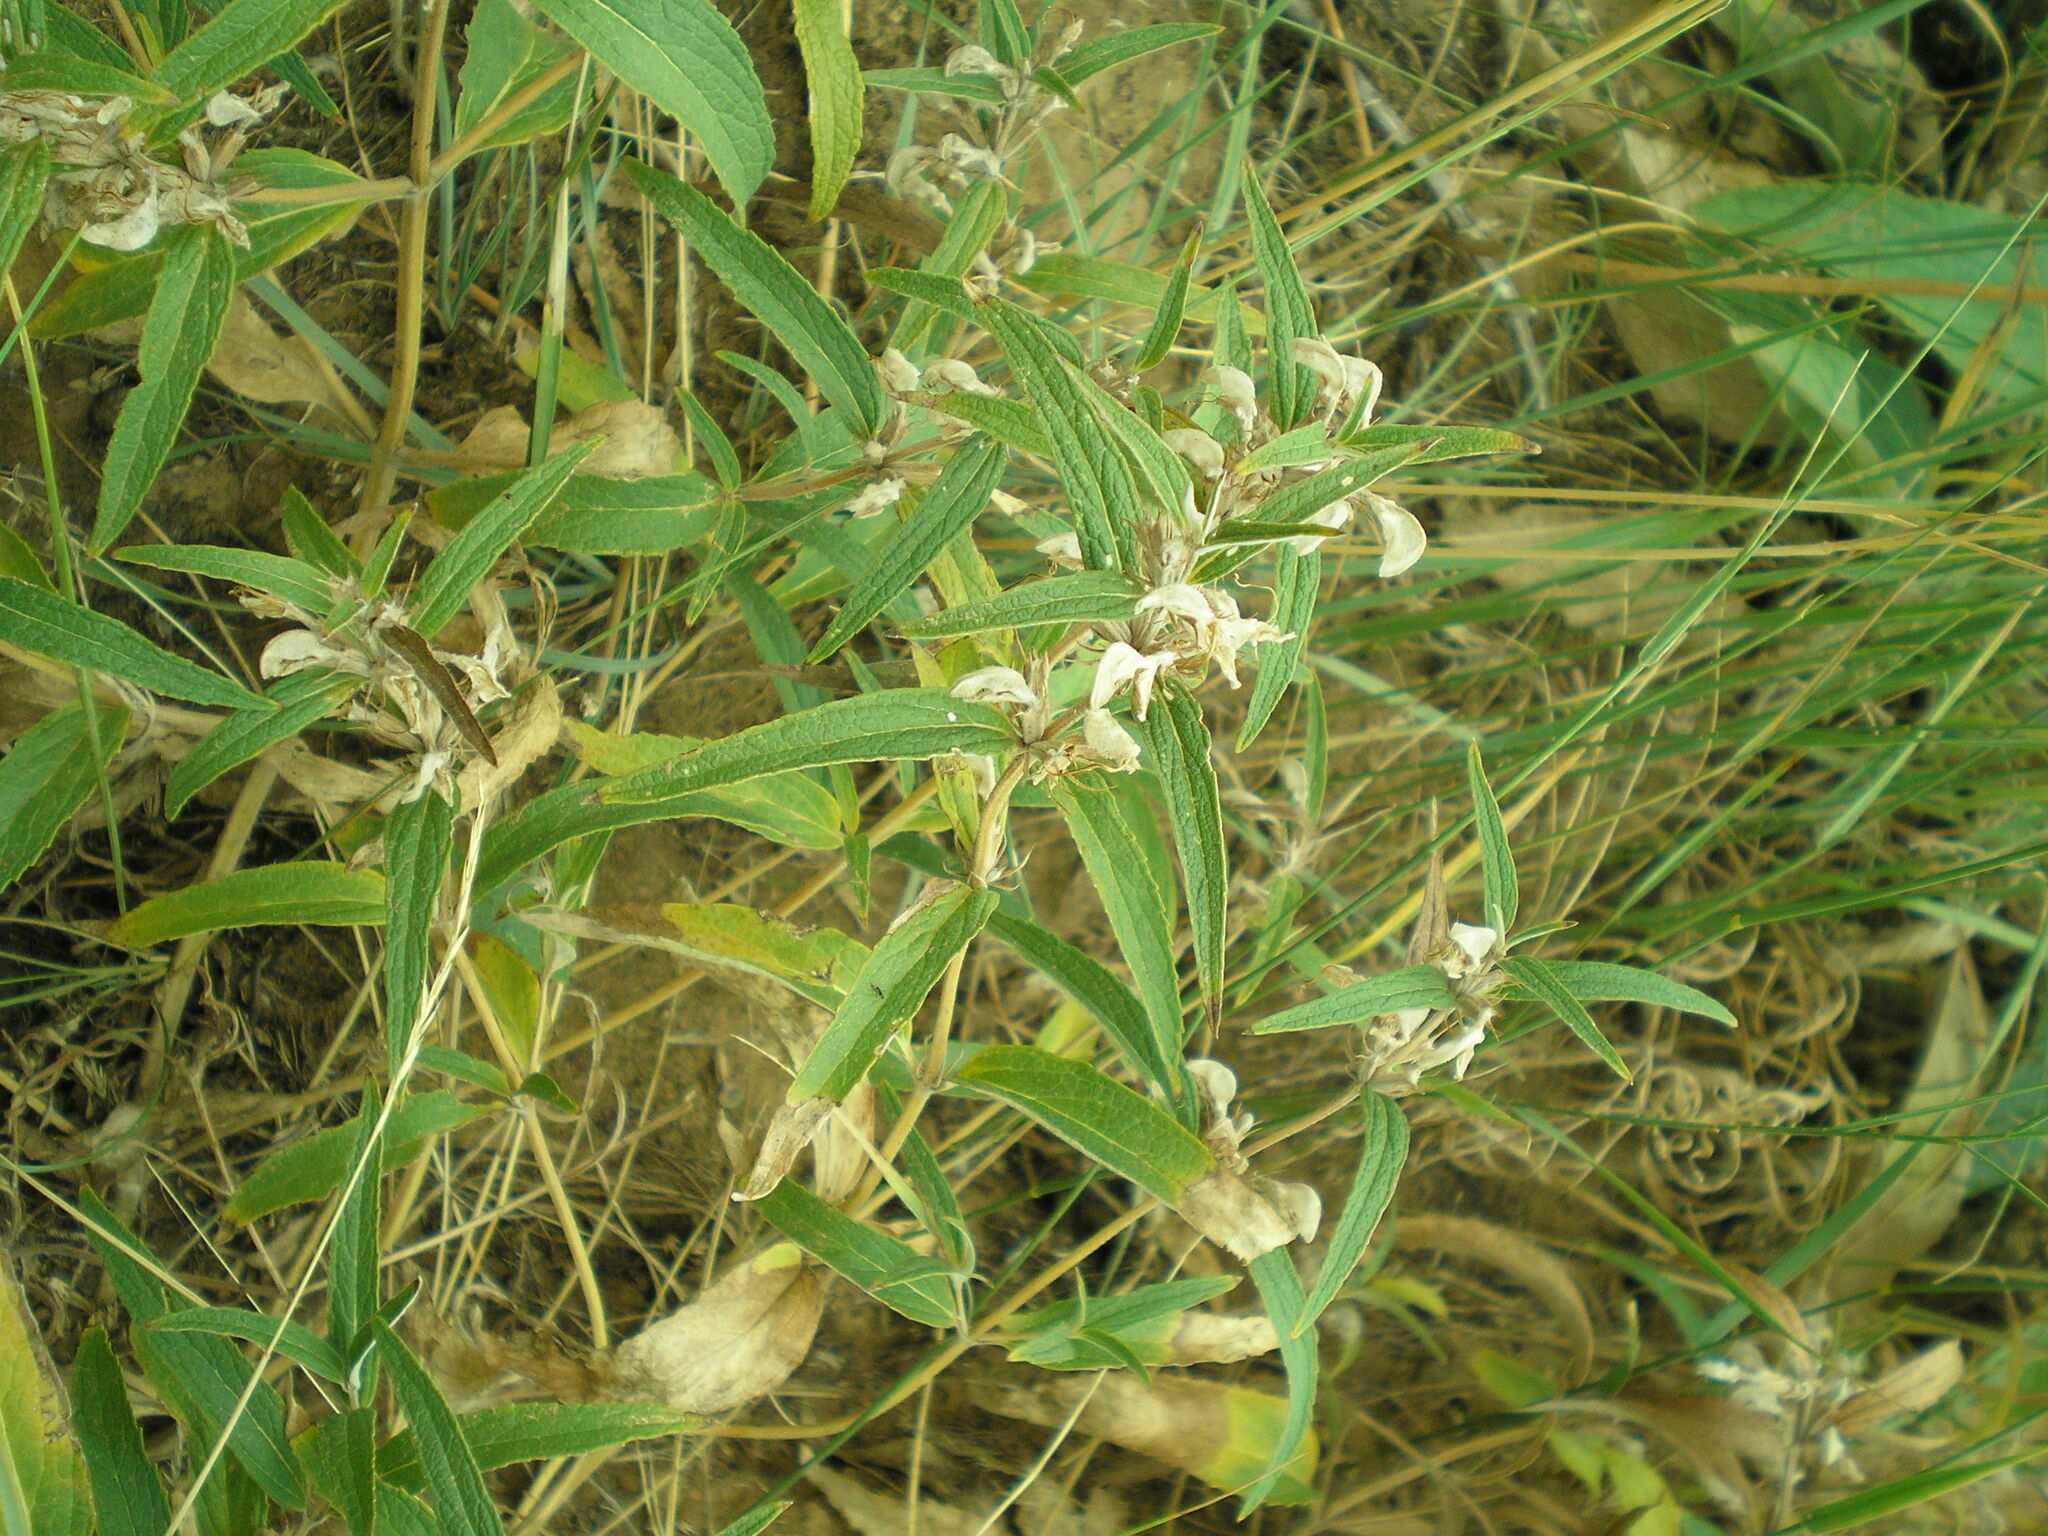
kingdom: Plantae
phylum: Tracheophyta
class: Magnoliopsida
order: Lamiales
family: Lamiaceae
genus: Phlomis
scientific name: Phlomis herba-venti
